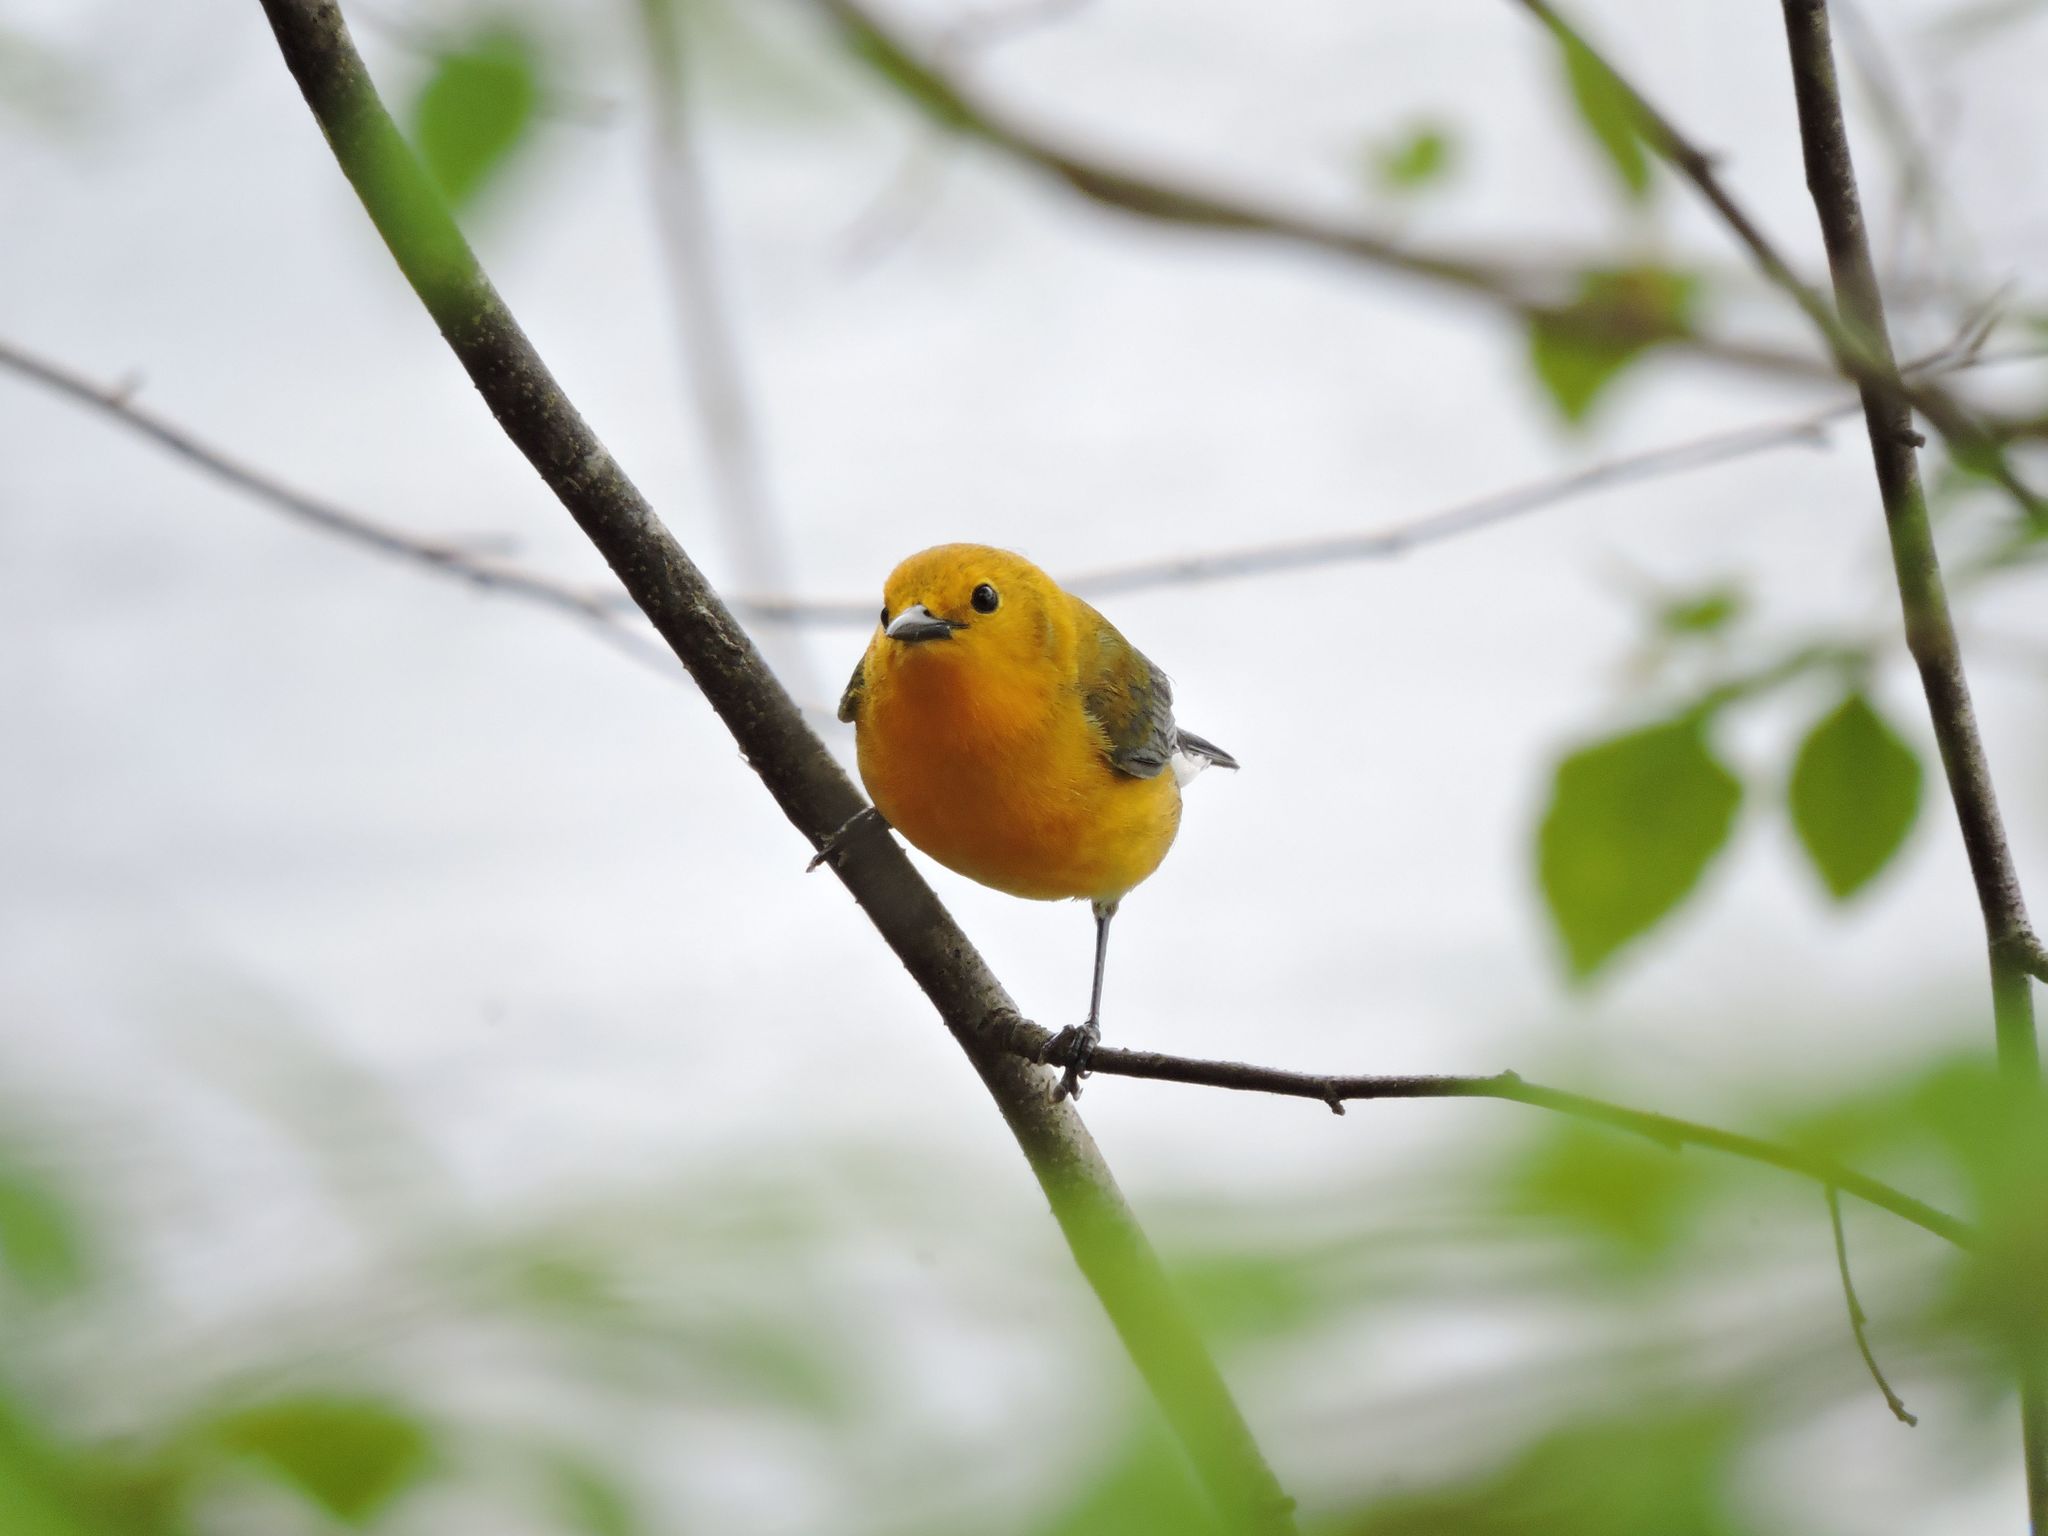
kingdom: Animalia
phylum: Chordata
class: Aves
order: Passeriformes
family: Parulidae
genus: Protonotaria
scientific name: Protonotaria citrea
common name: Prothonotary warbler
